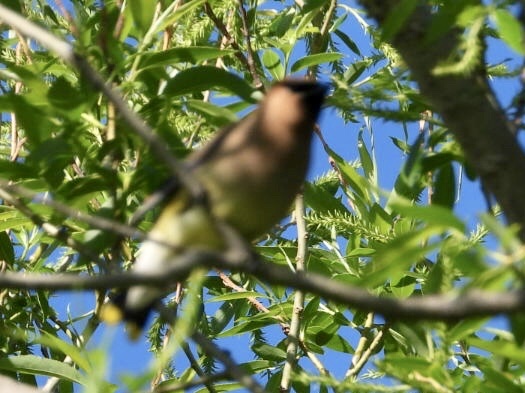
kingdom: Animalia
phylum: Chordata
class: Aves
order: Passeriformes
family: Bombycillidae
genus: Bombycilla
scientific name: Bombycilla cedrorum
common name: Cedar waxwing
